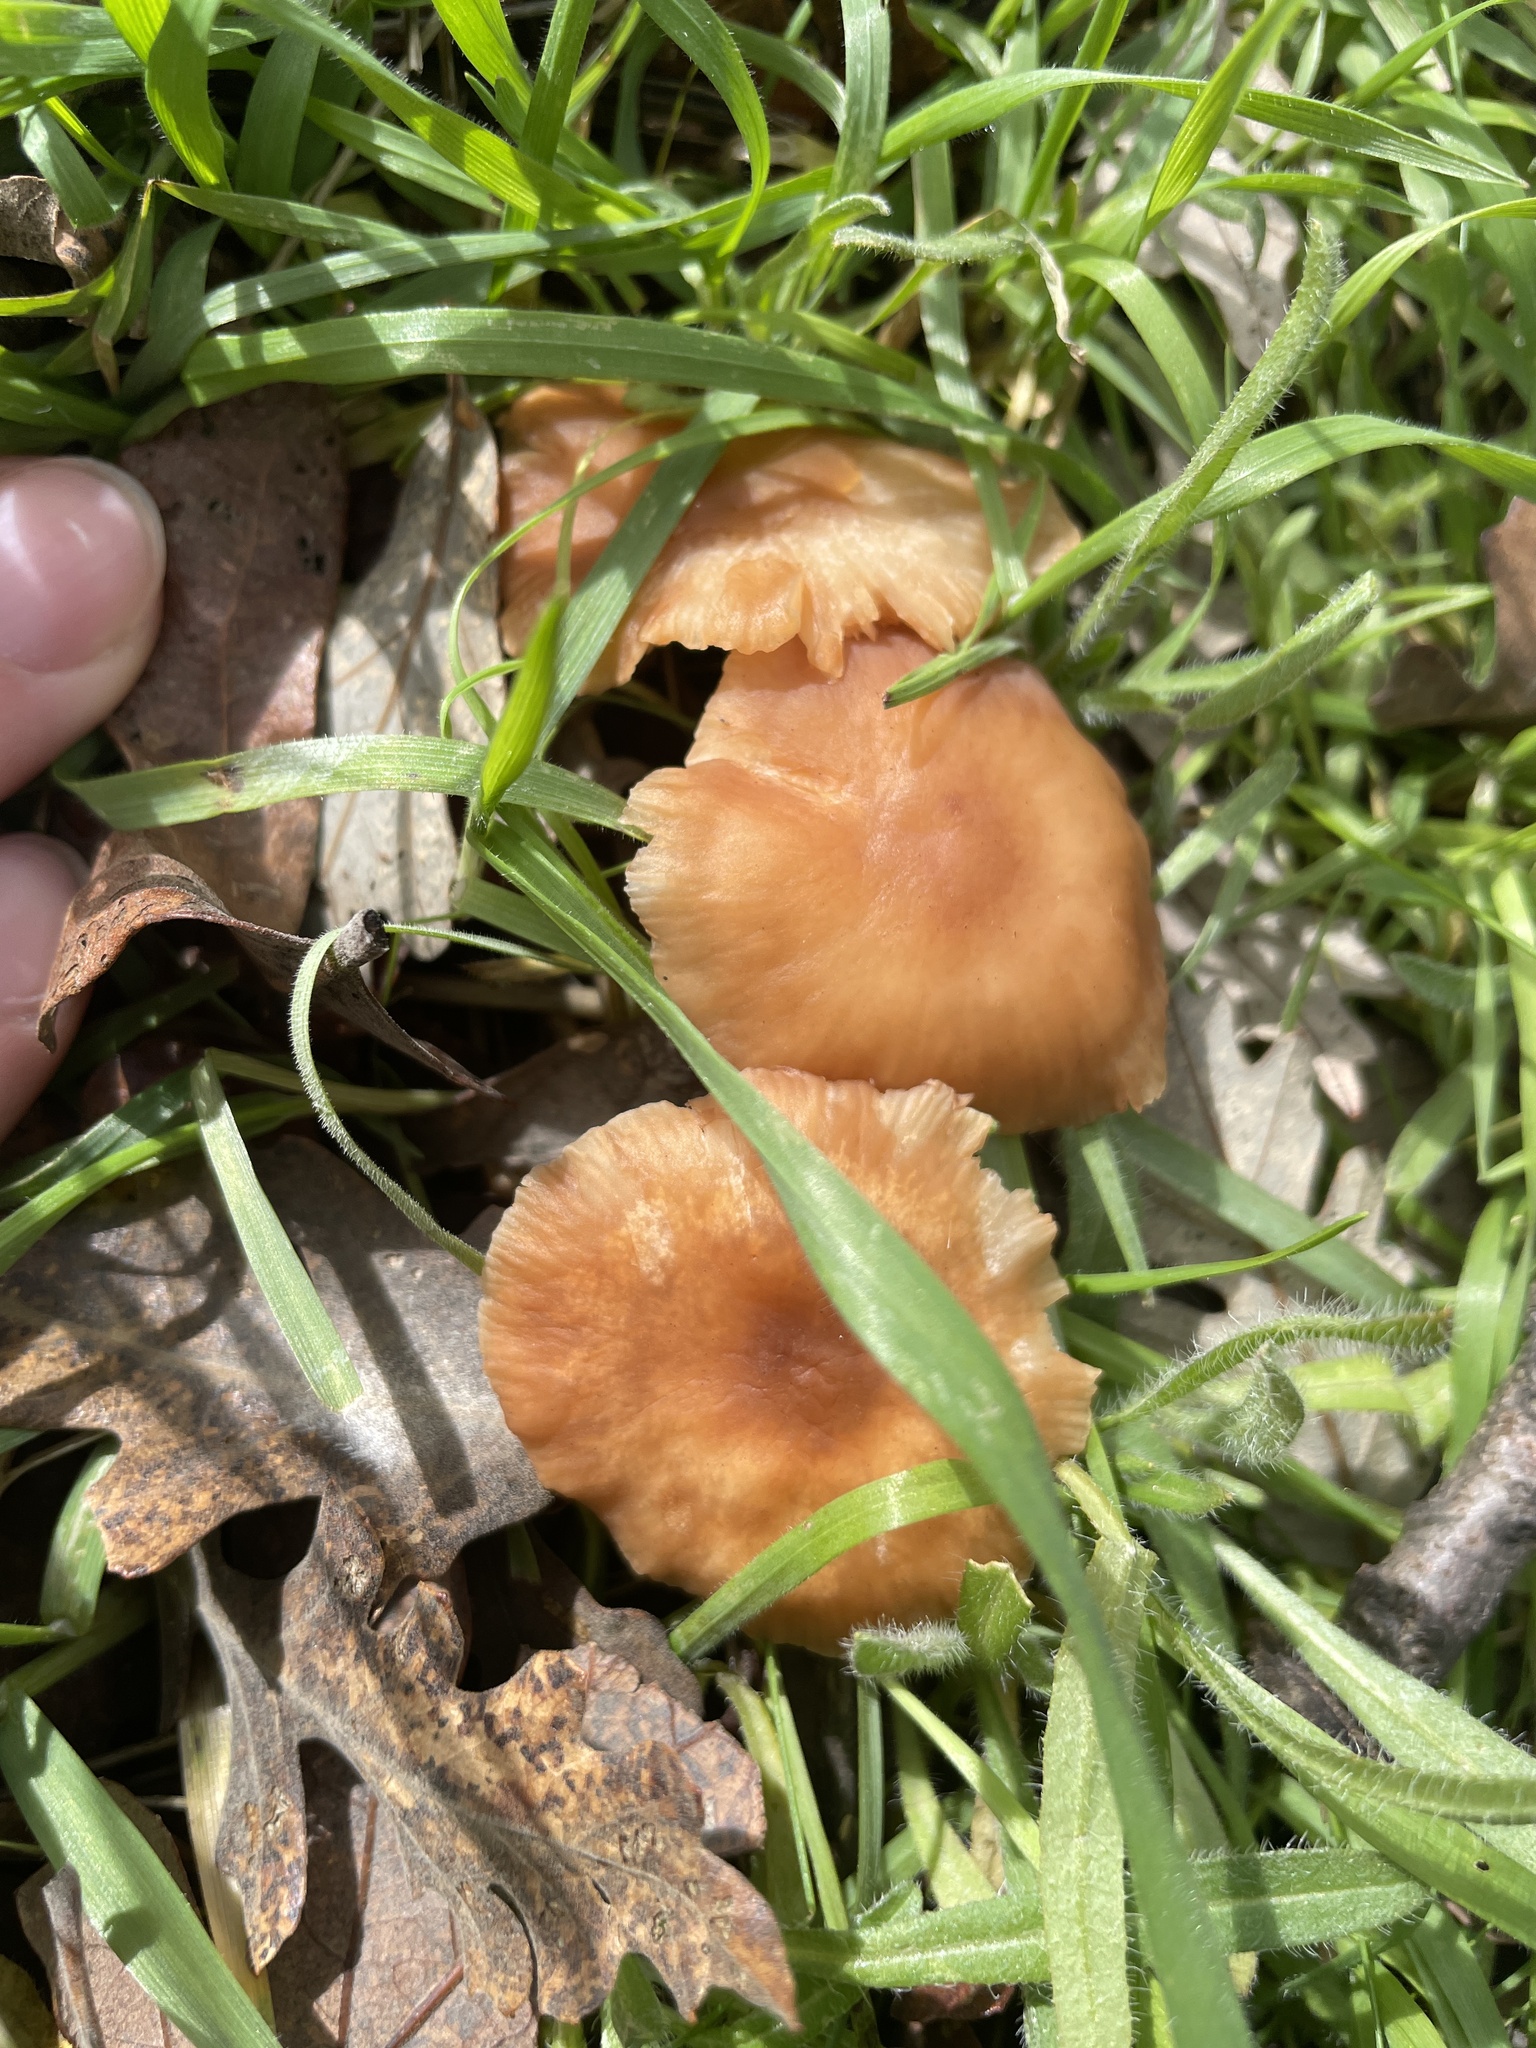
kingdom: Fungi
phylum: Basidiomycota
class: Agaricomycetes
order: Agaricales
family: Omphalotaceae
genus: Gymnopus
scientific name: Gymnopus dryophilus
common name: Penny top
